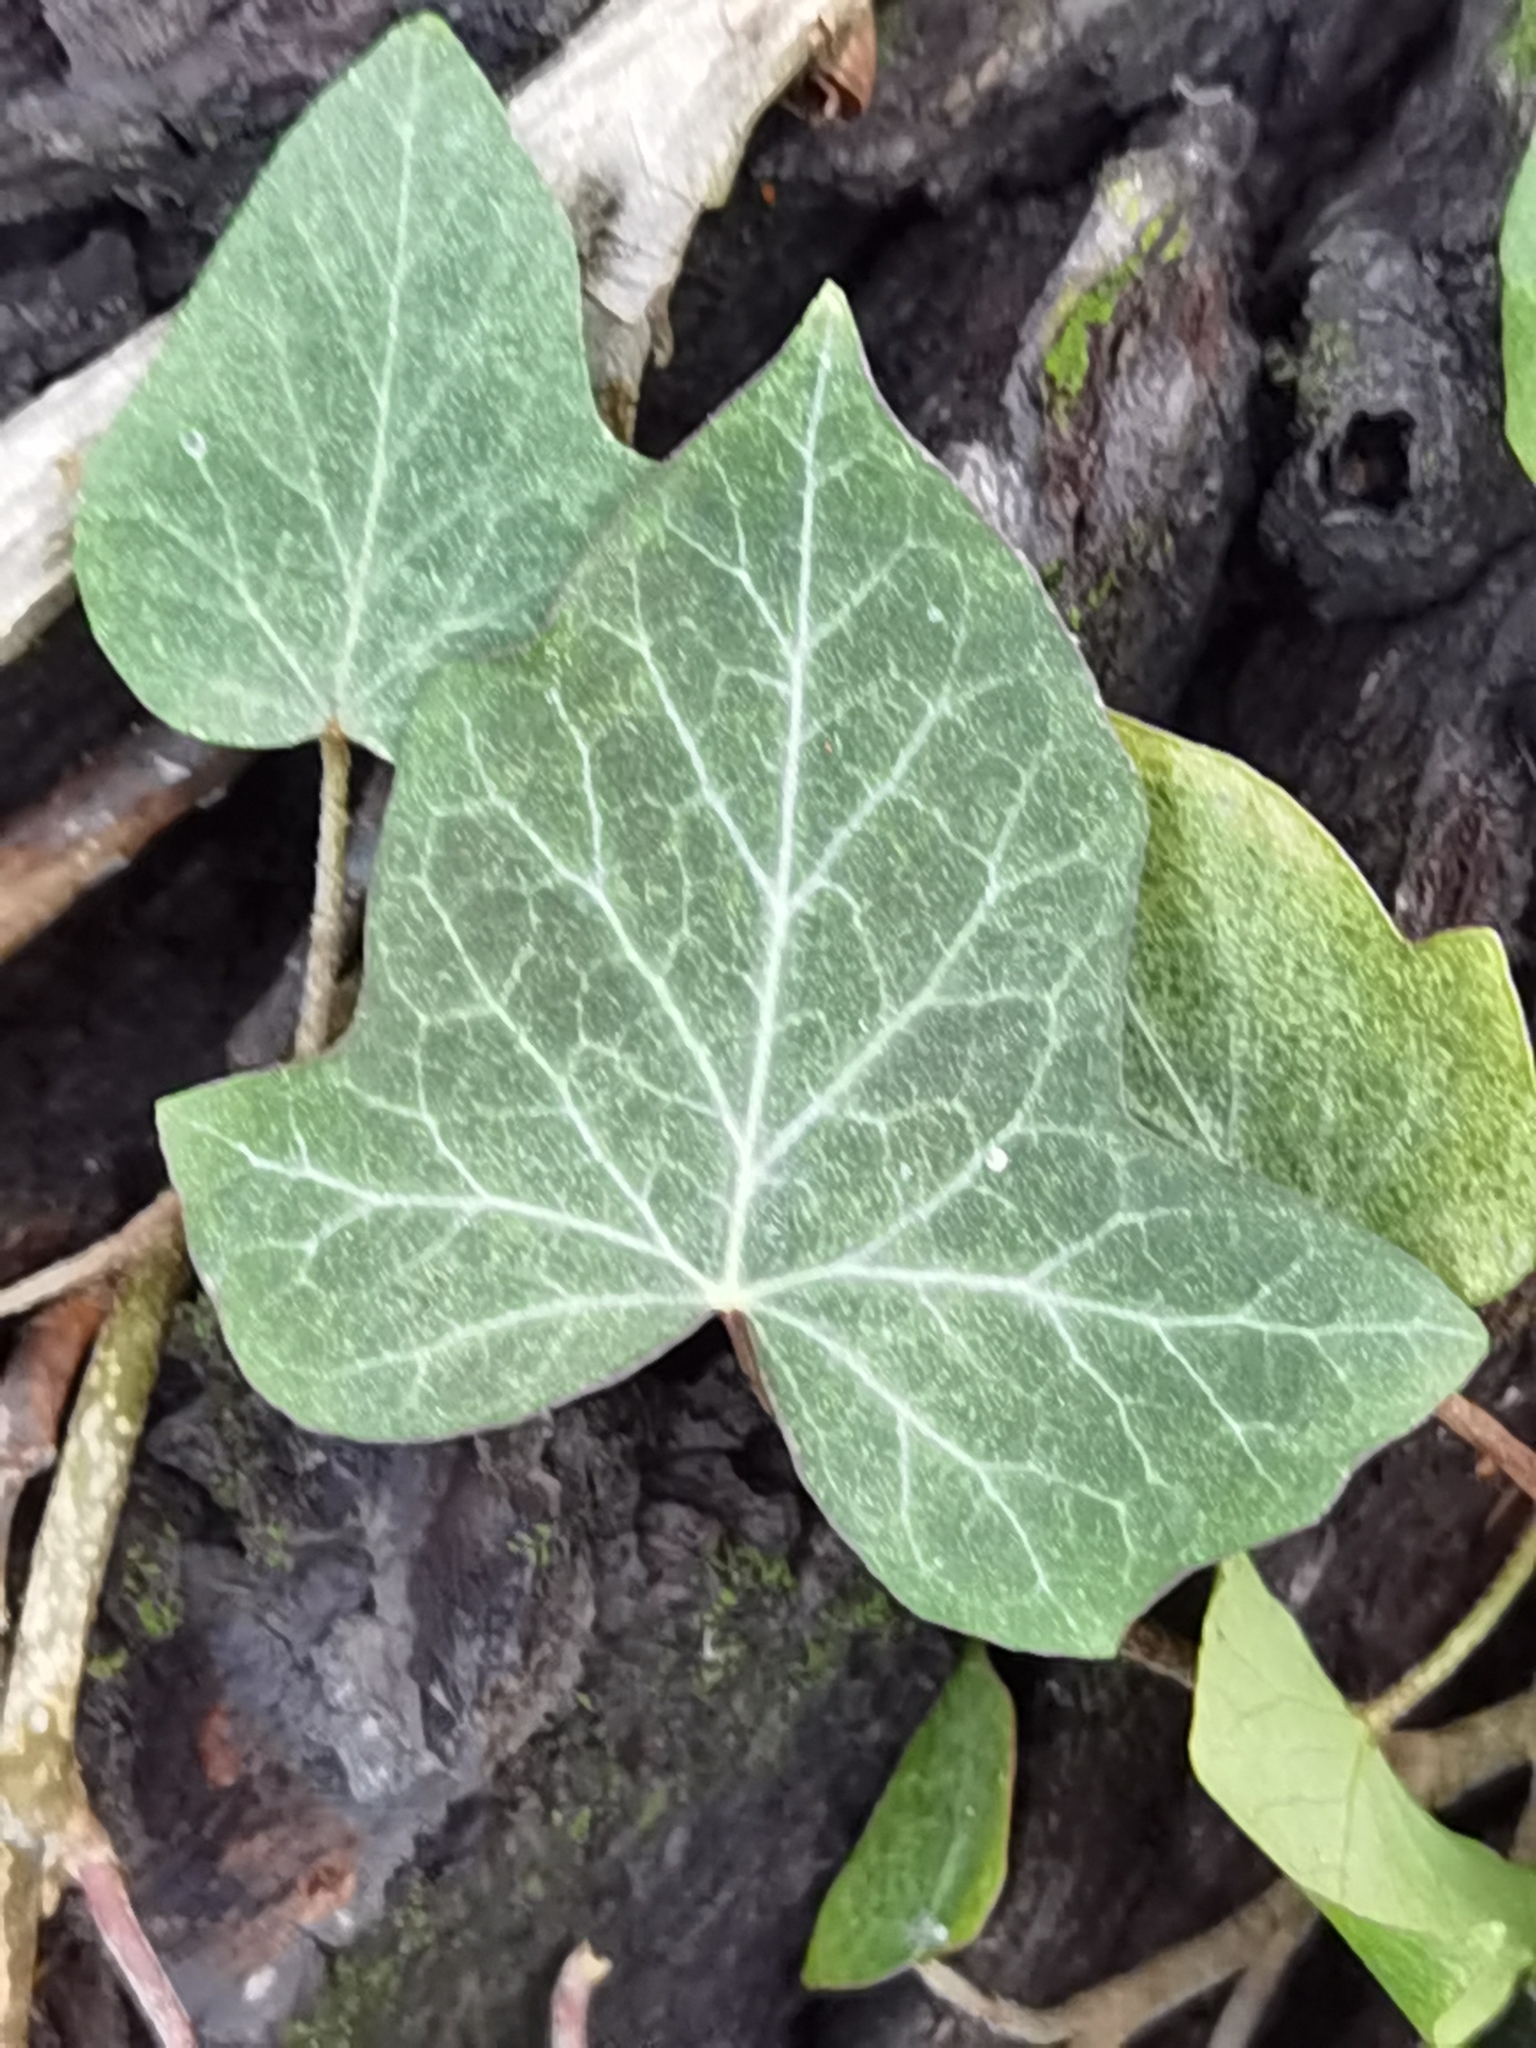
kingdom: Plantae
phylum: Tracheophyta
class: Magnoliopsida
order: Apiales
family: Araliaceae
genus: Hedera
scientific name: Hedera helix
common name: Ivy
